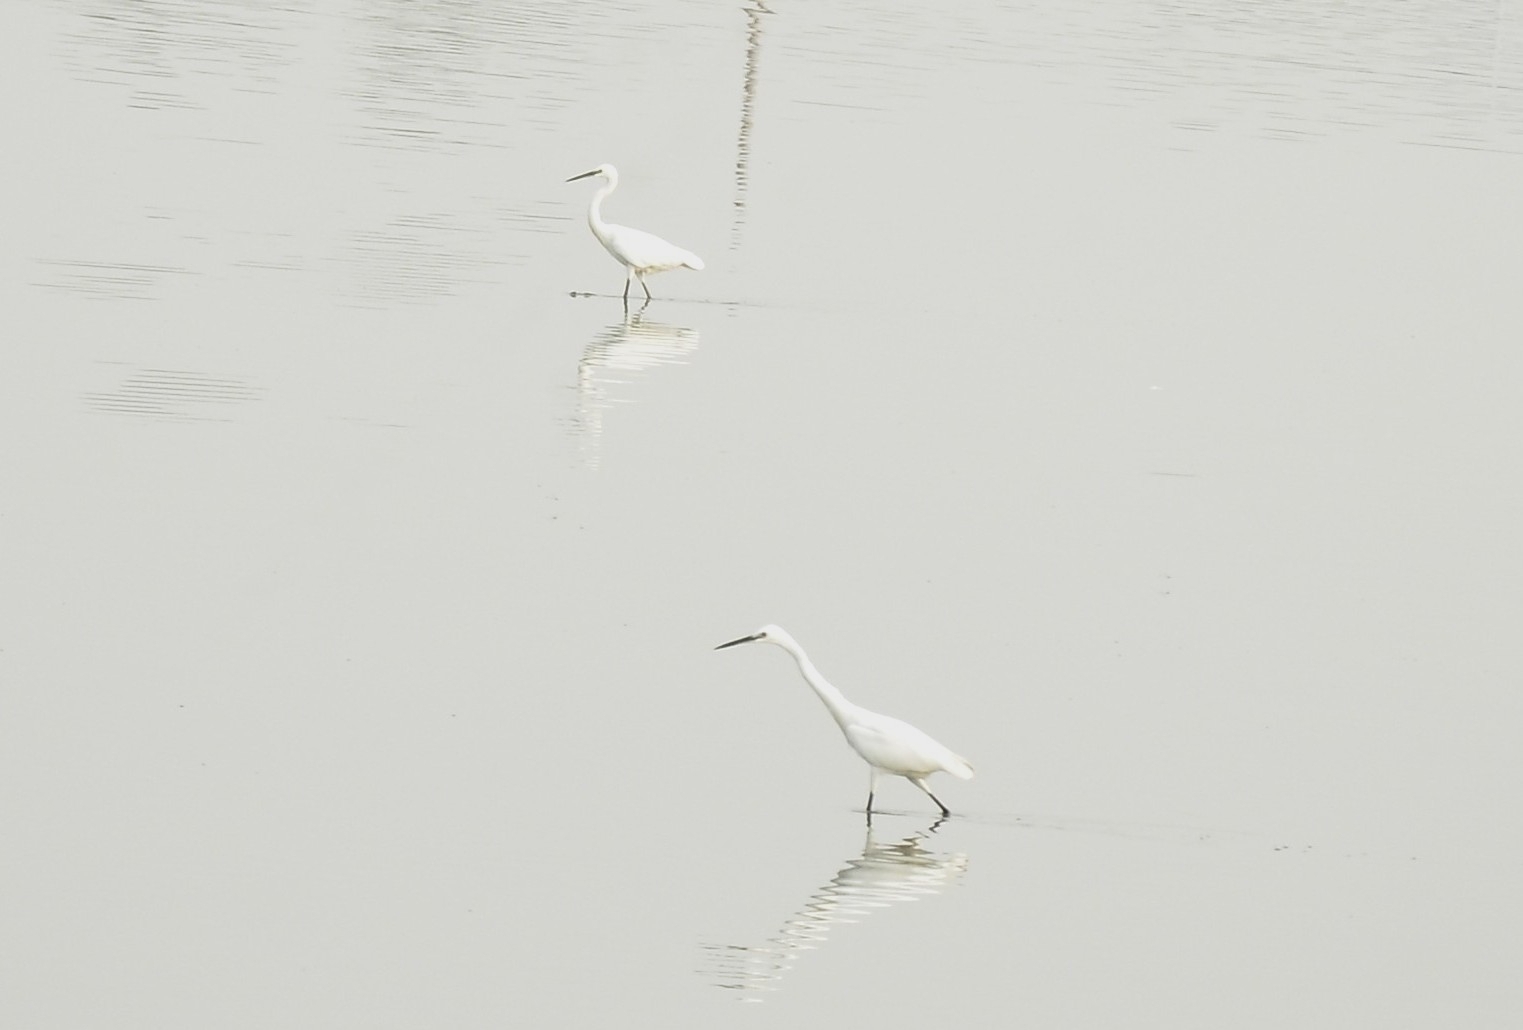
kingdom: Animalia
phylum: Chordata
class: Aves
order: Pelecaniformes
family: Ardeidae
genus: Egretta
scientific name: Egretta garzetta
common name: Little egret
